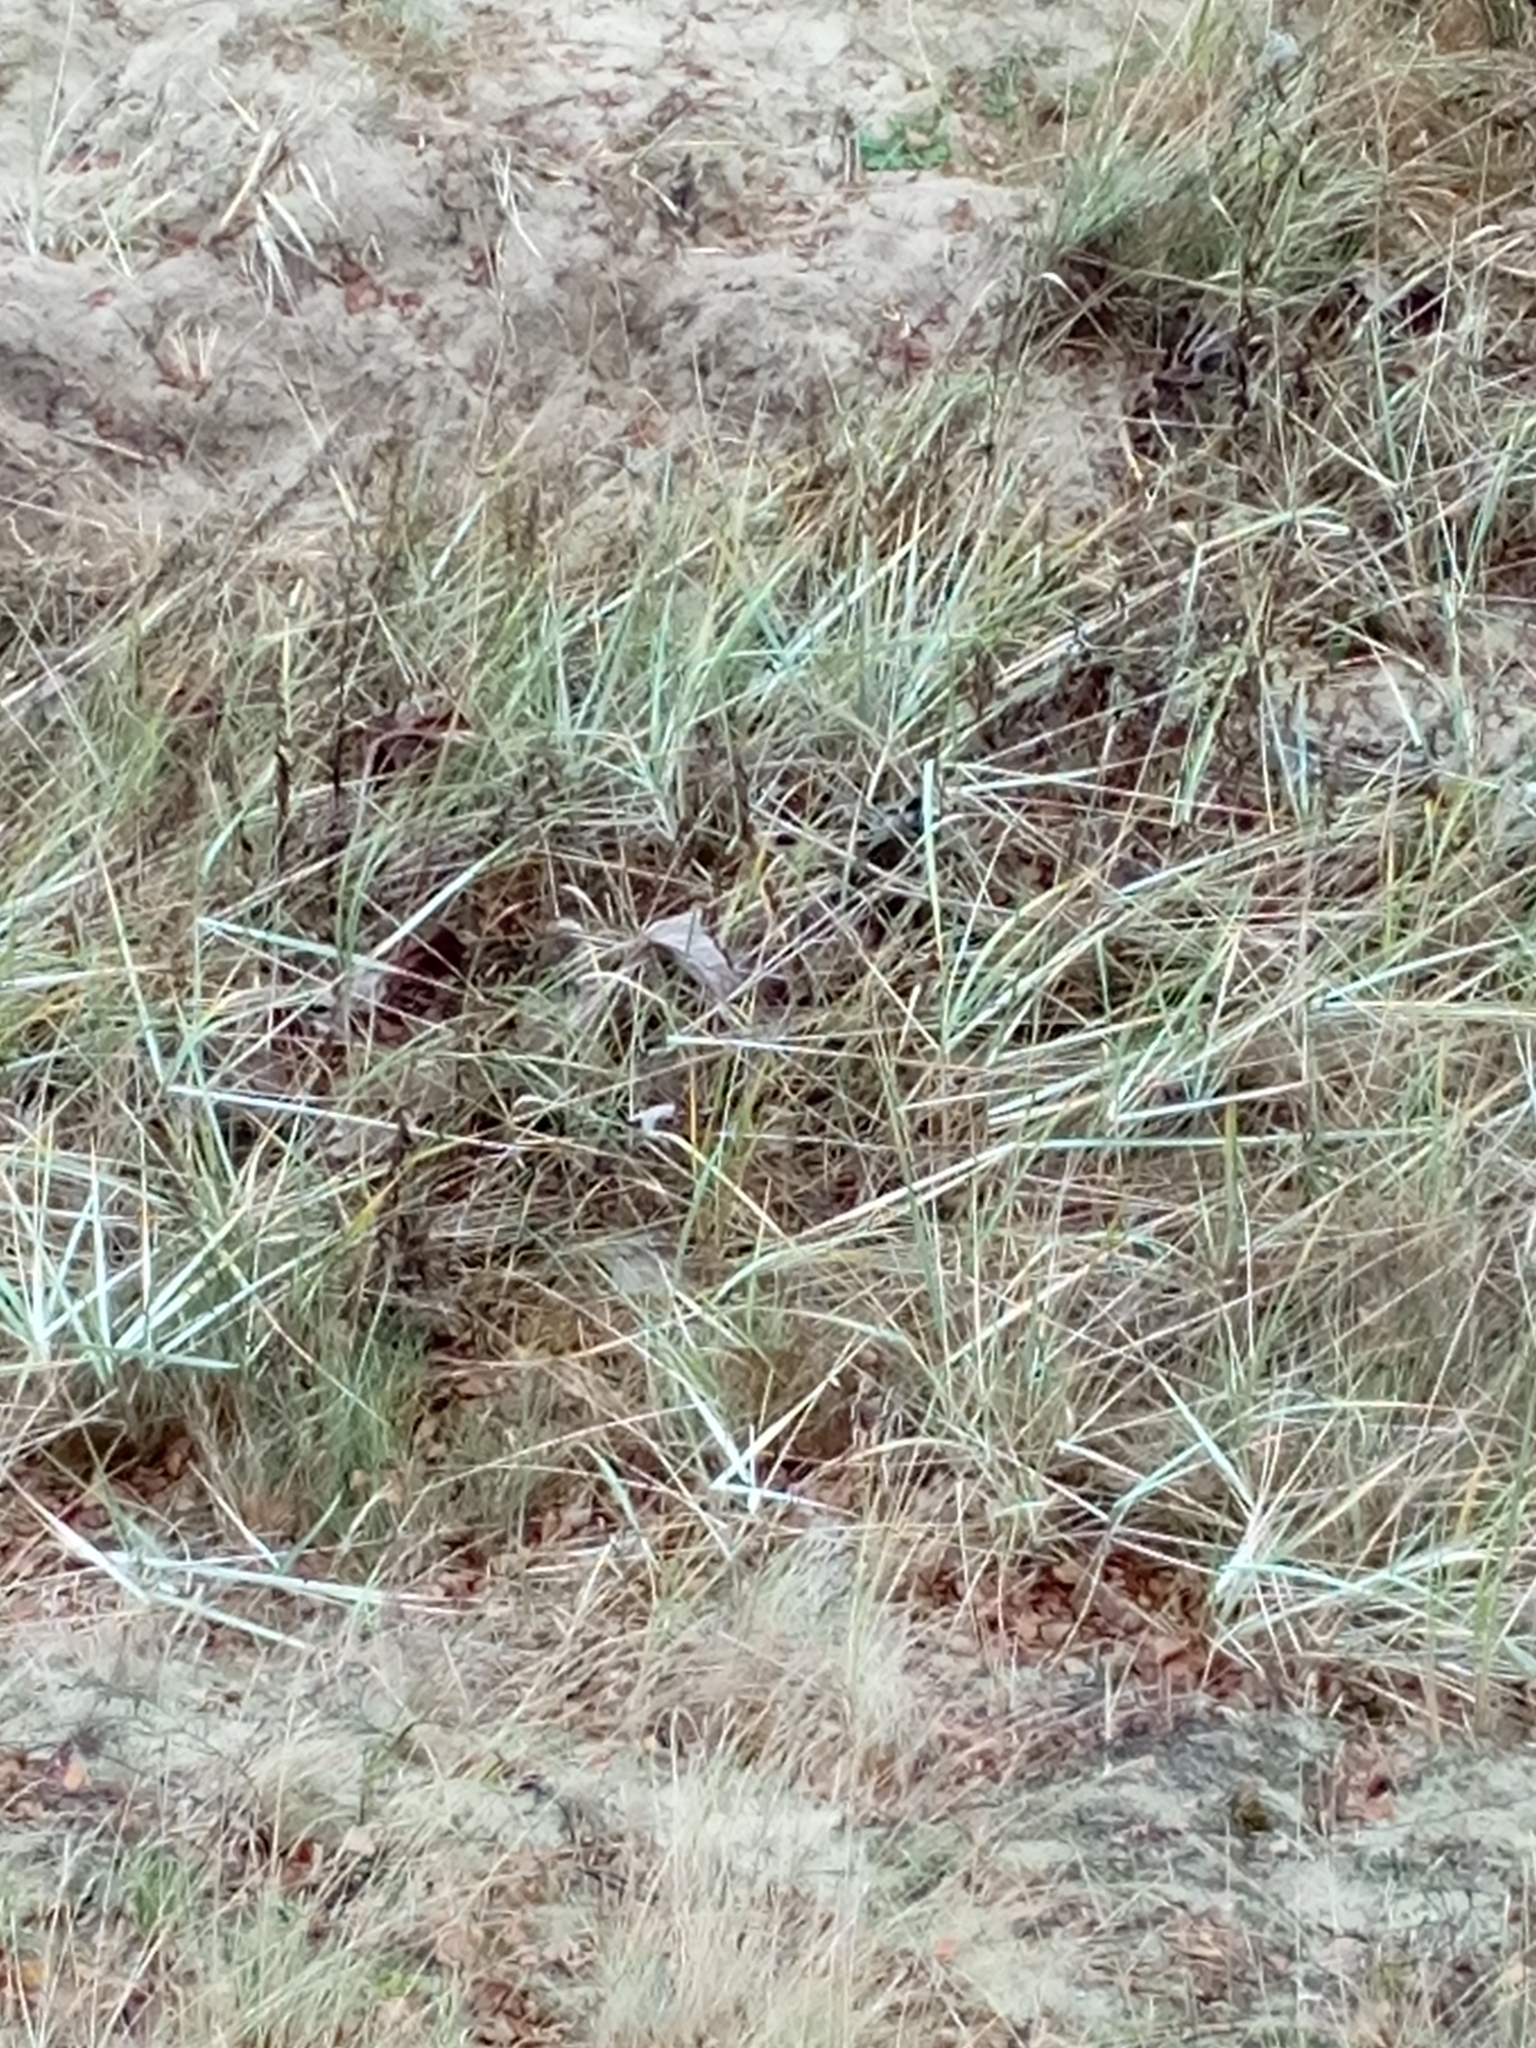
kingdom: Plantae
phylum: Tracheophyta
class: Liliopsida
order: Poales
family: Poaceae
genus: Leymus
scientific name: Leymus arenarius
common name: Lyme-grass
